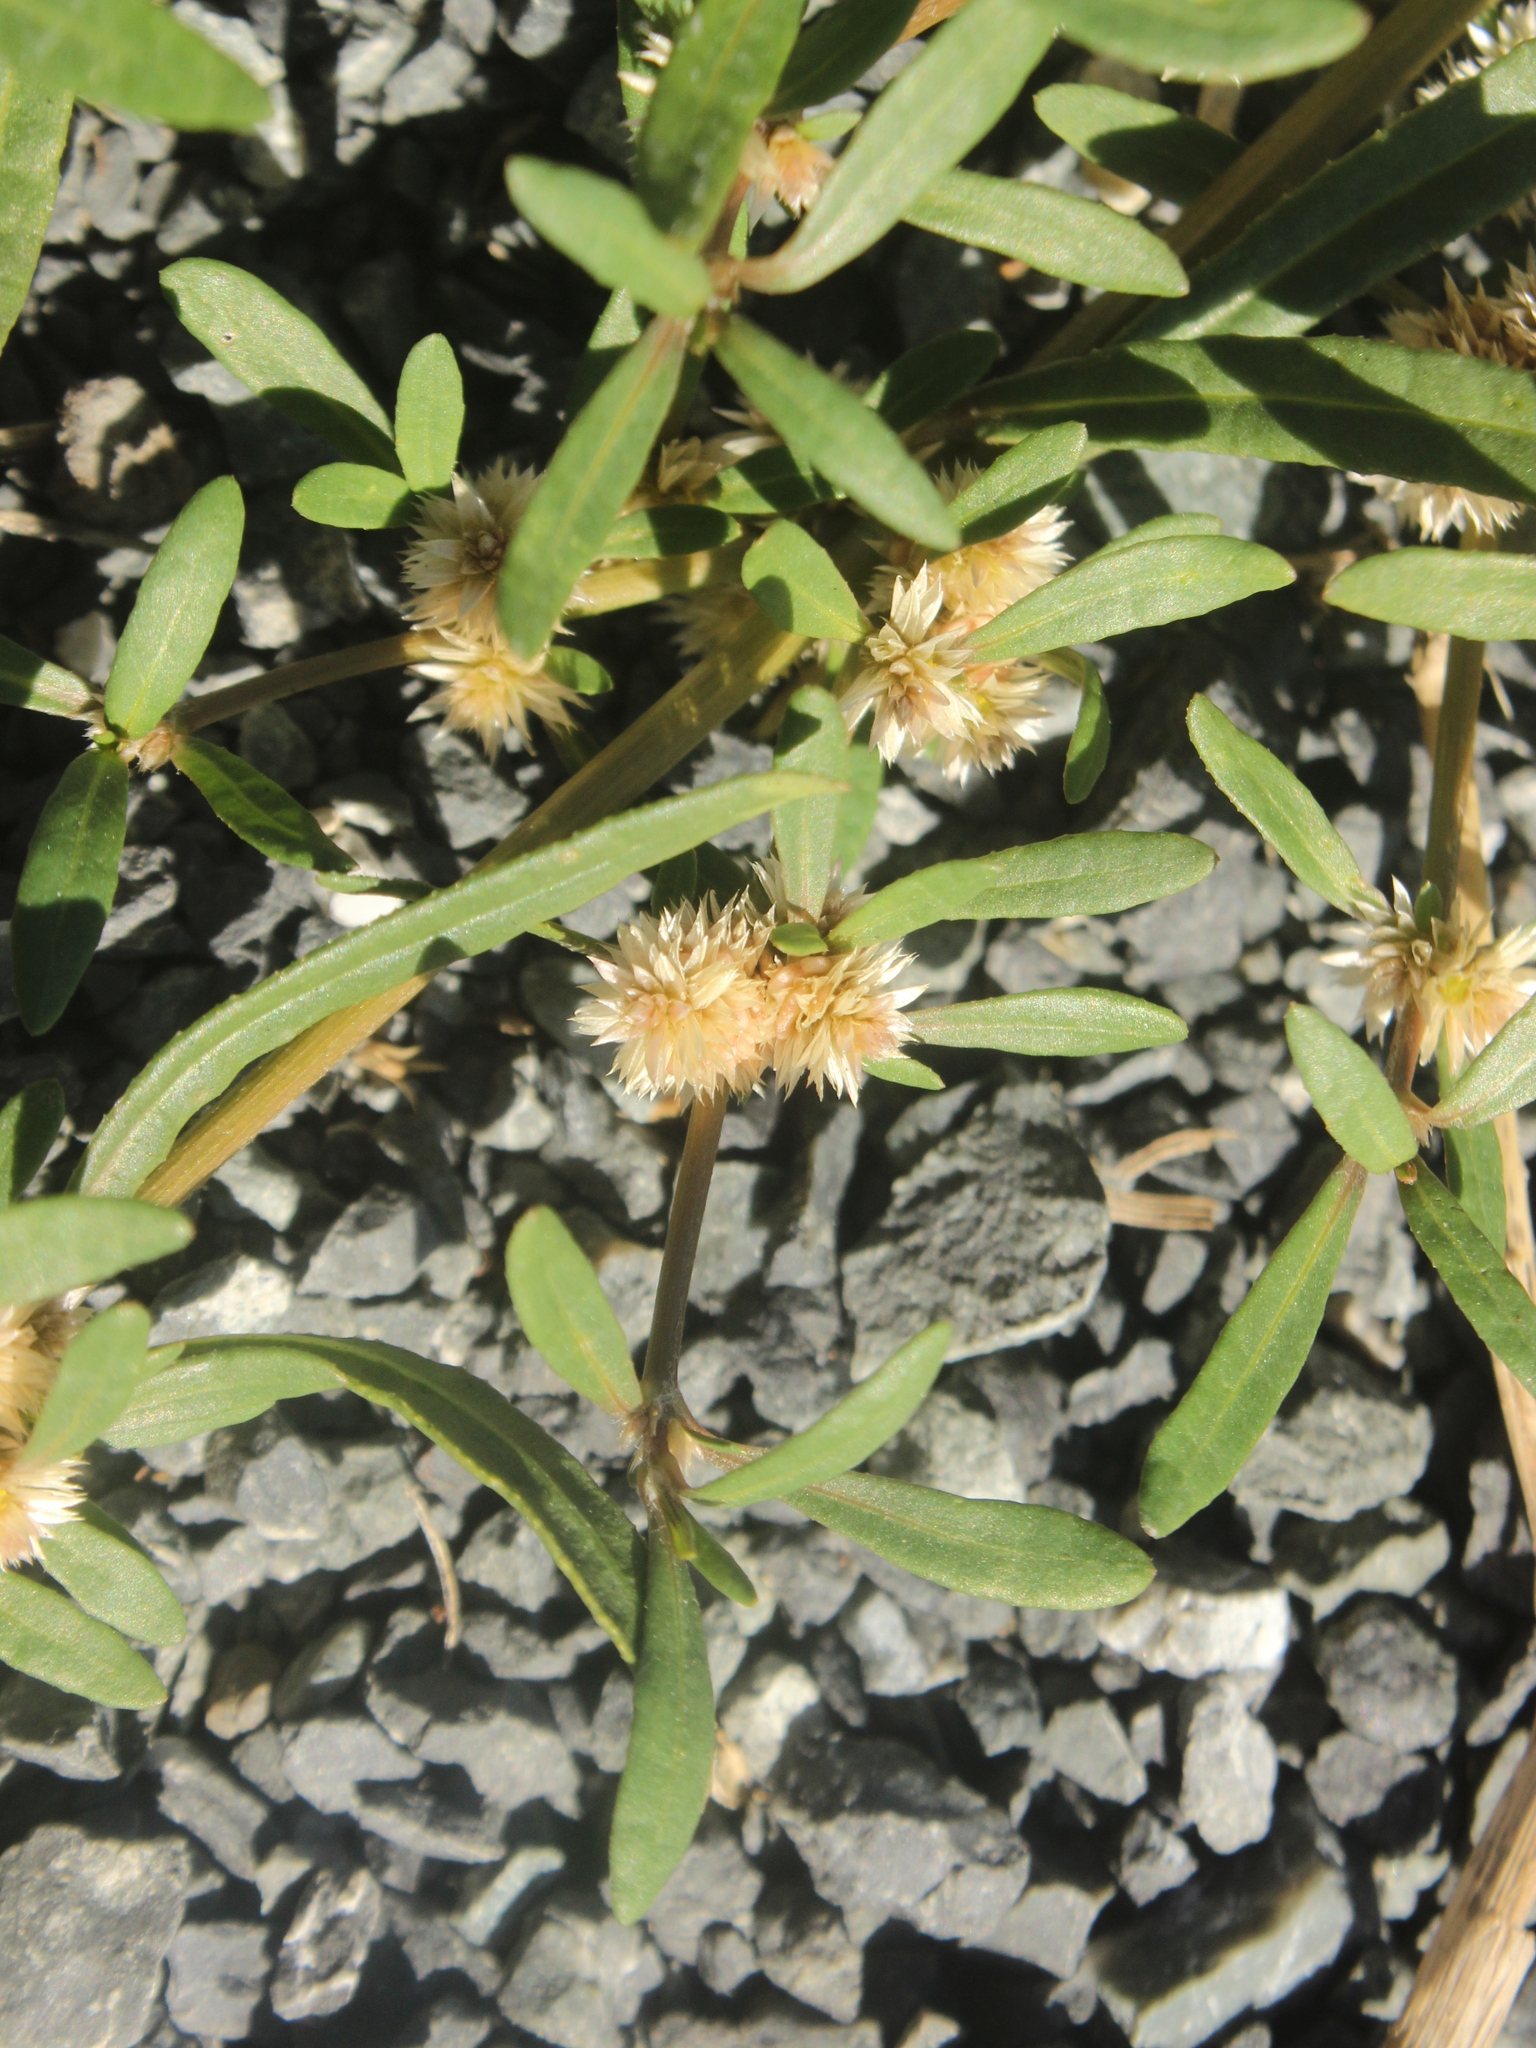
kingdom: Plantae
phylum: Tracheophyta
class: Magnoliopsida
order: Caryophyllales
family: Amaranthaceae
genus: Alternanthera
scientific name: Alternanthera nahui
